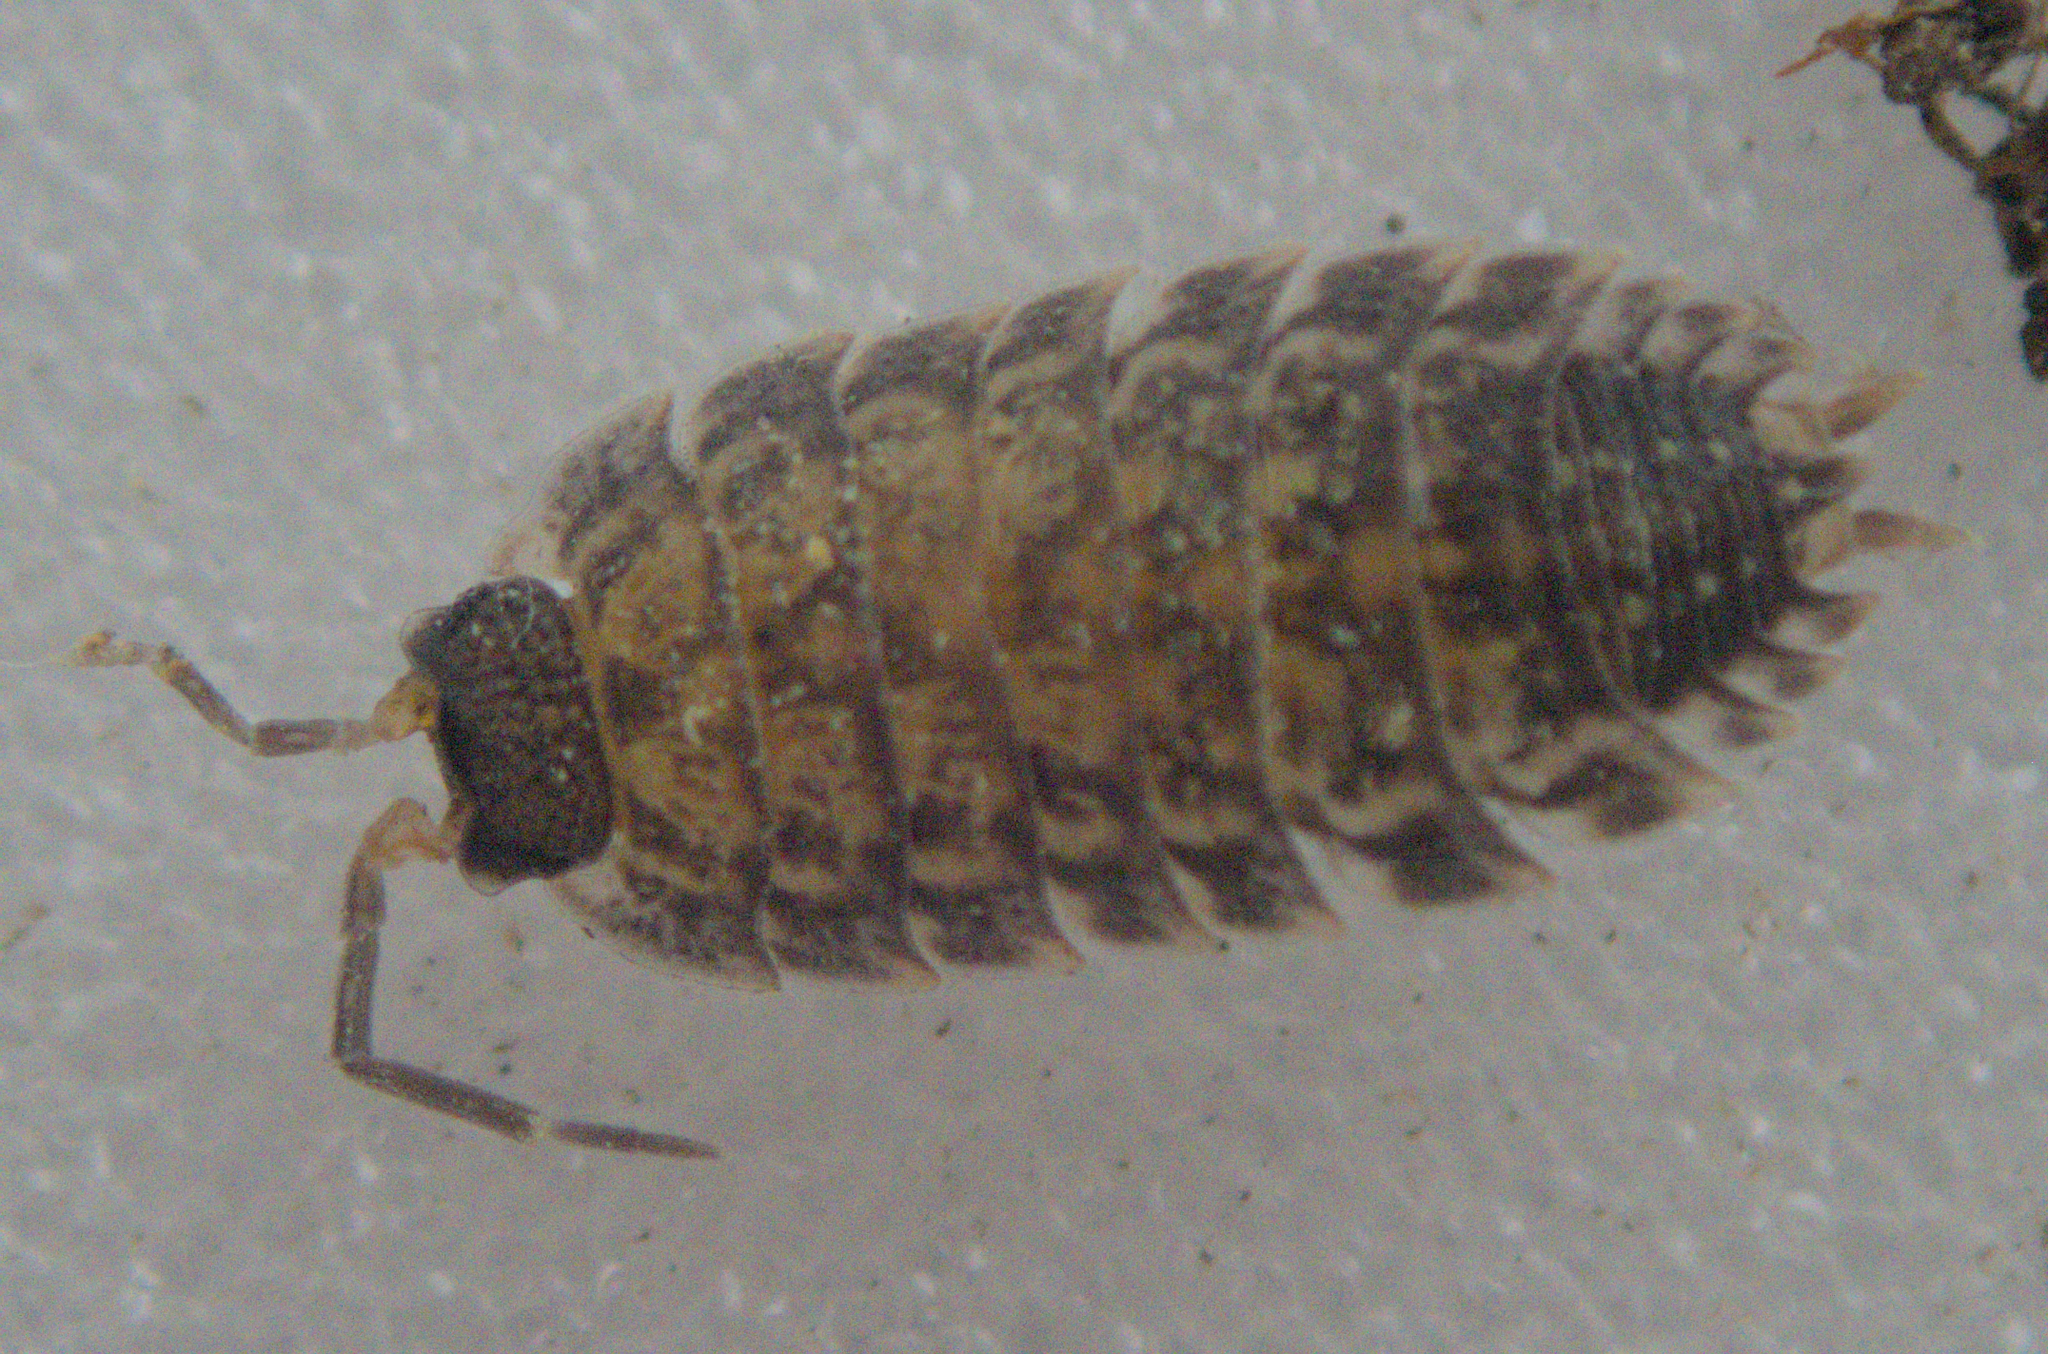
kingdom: Animalia
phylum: Arthropoda
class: Malacostraca
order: Isopoda
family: Porcellionidae
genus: Porcellio
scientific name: Porcellio spinicornis
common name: Painted woodlouse
